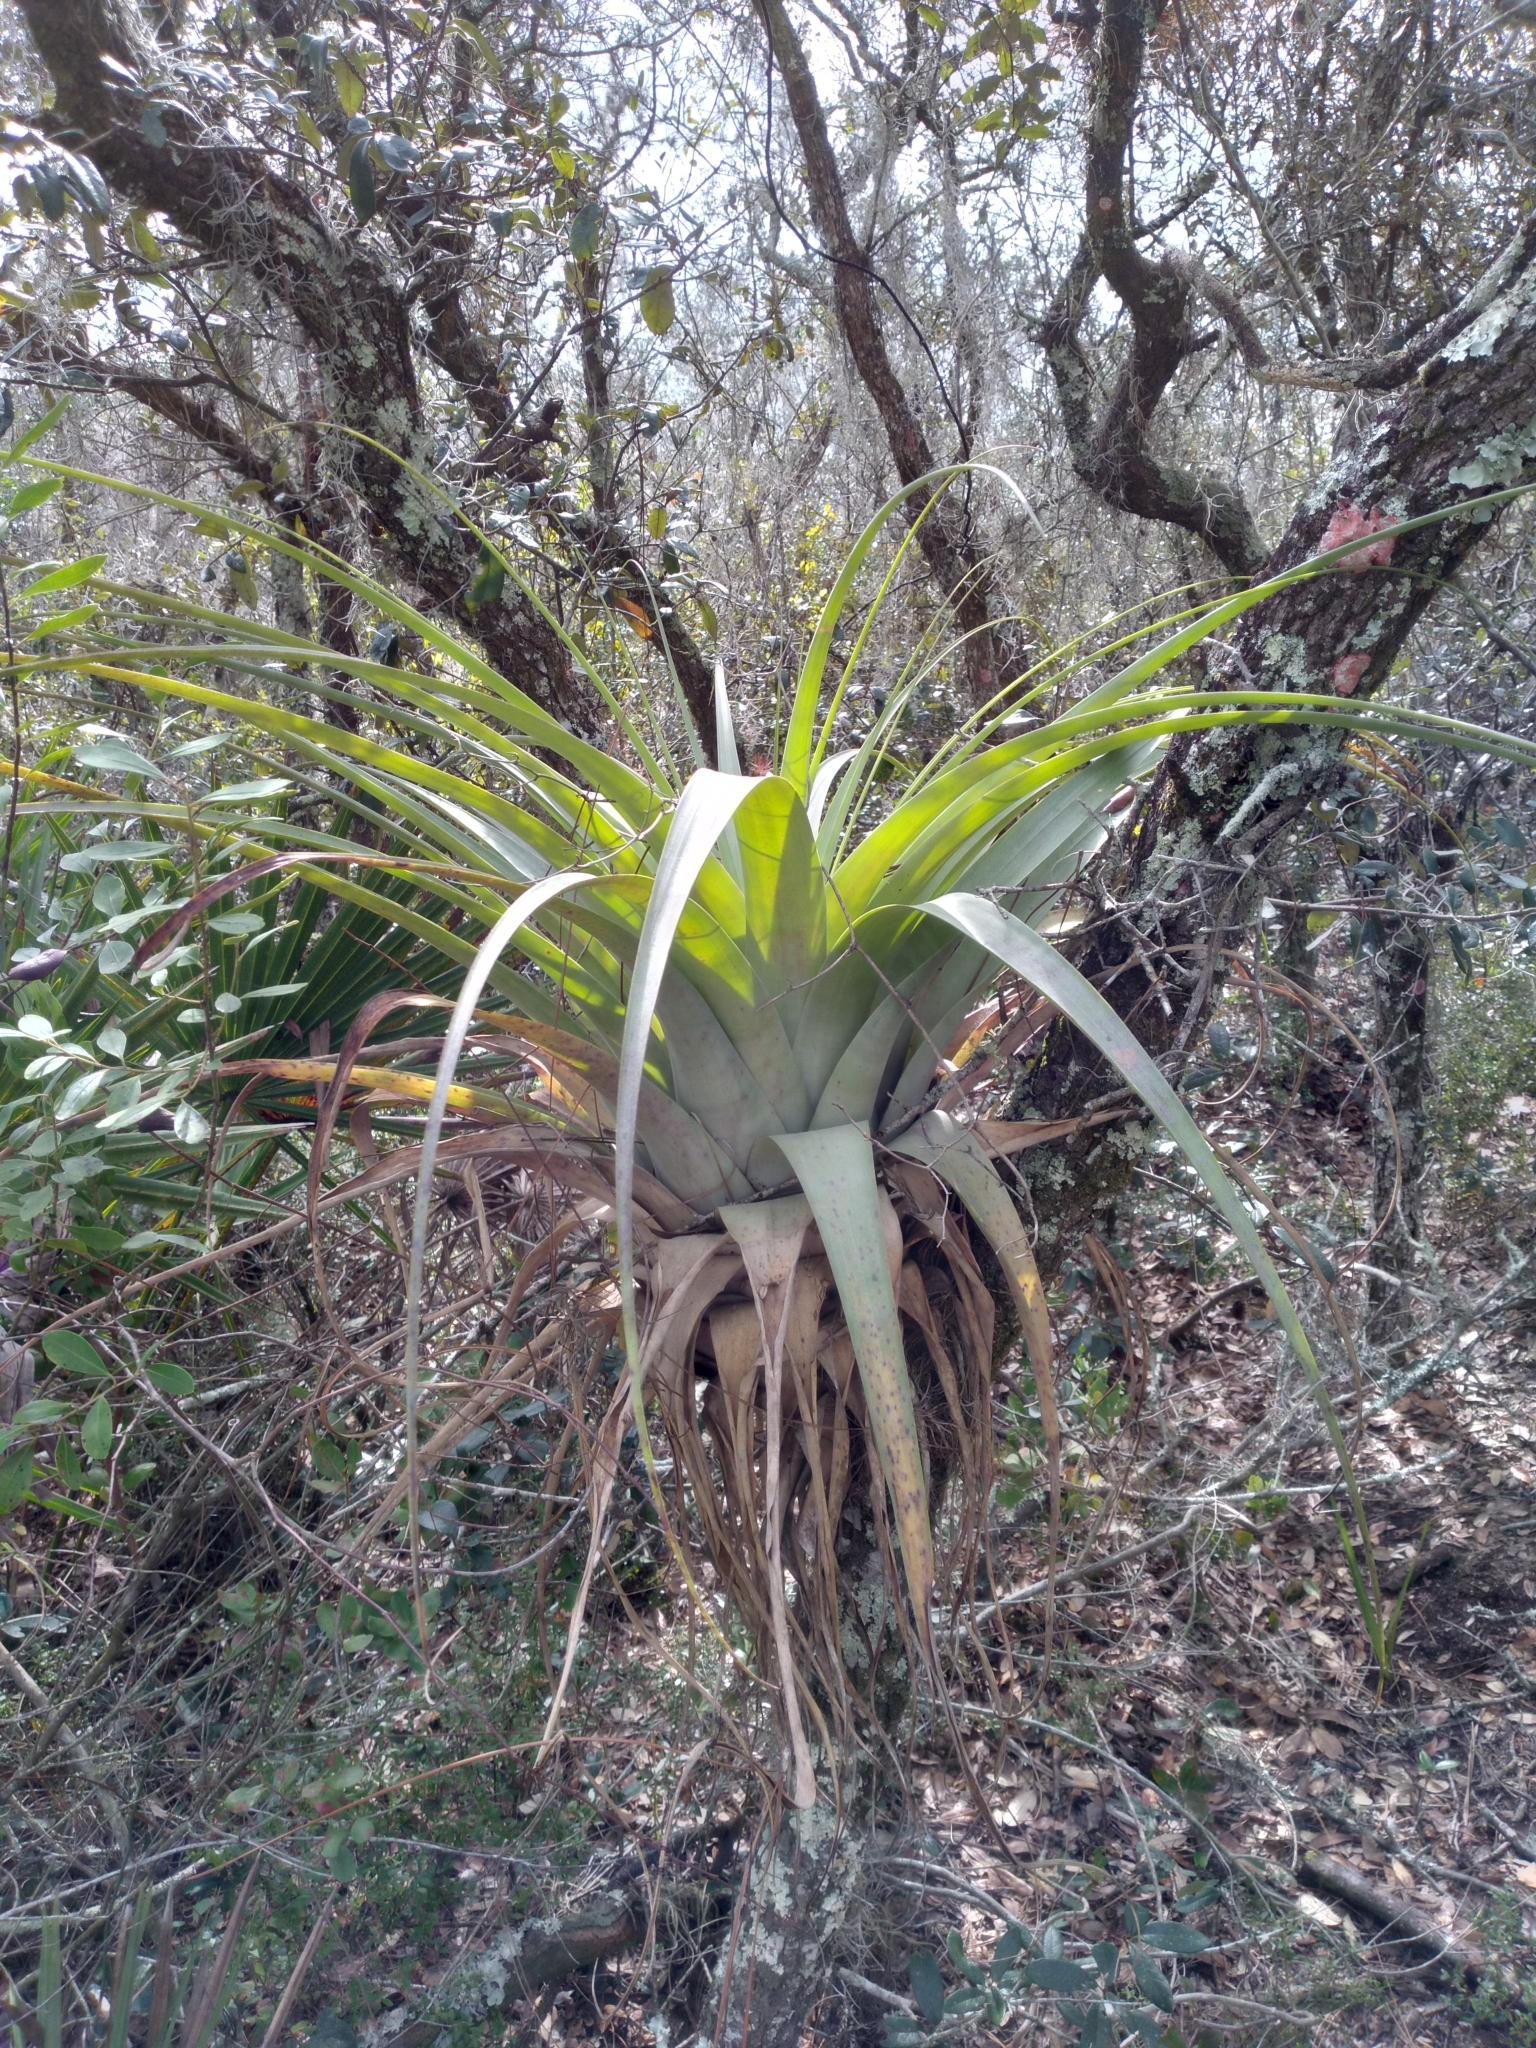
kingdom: Plantae
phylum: Tracheophyta
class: Liliopsida
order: Poales
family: Bromeliaceae
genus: Tillandsia
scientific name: Tillandsia utriculata
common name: Wild pine
